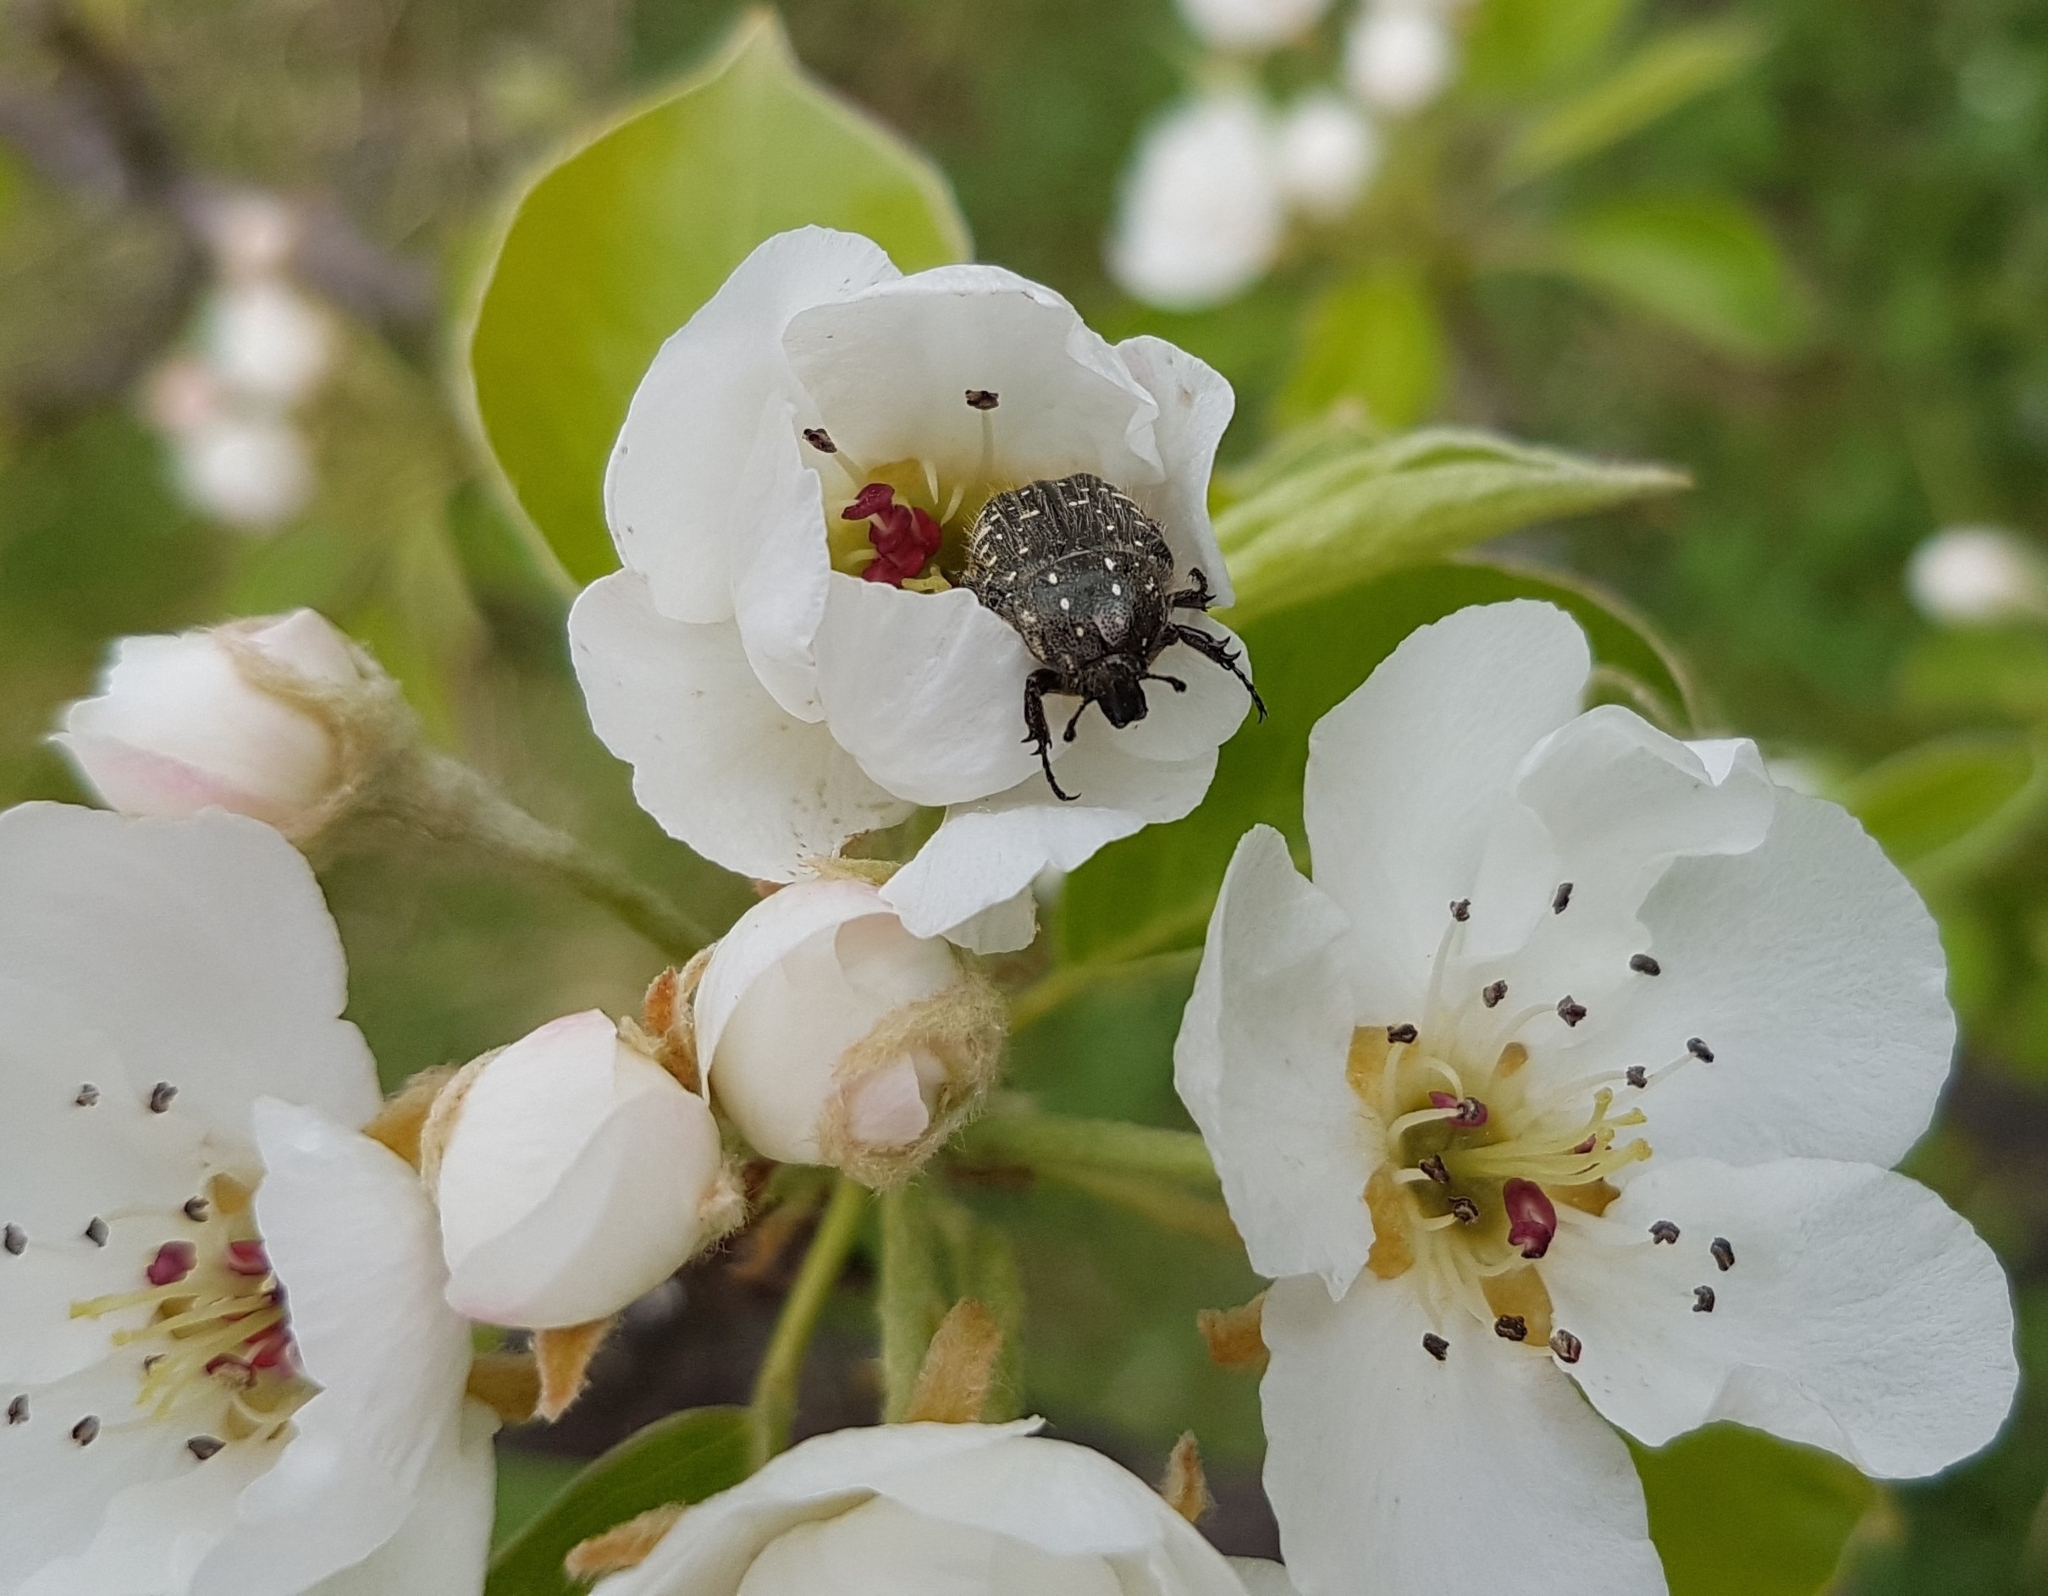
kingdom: Animalia
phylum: Arthropoda
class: Insecta
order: Coleoptera
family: Scarabaeidae
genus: Oxythyrea
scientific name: Oxythyrea funesta
